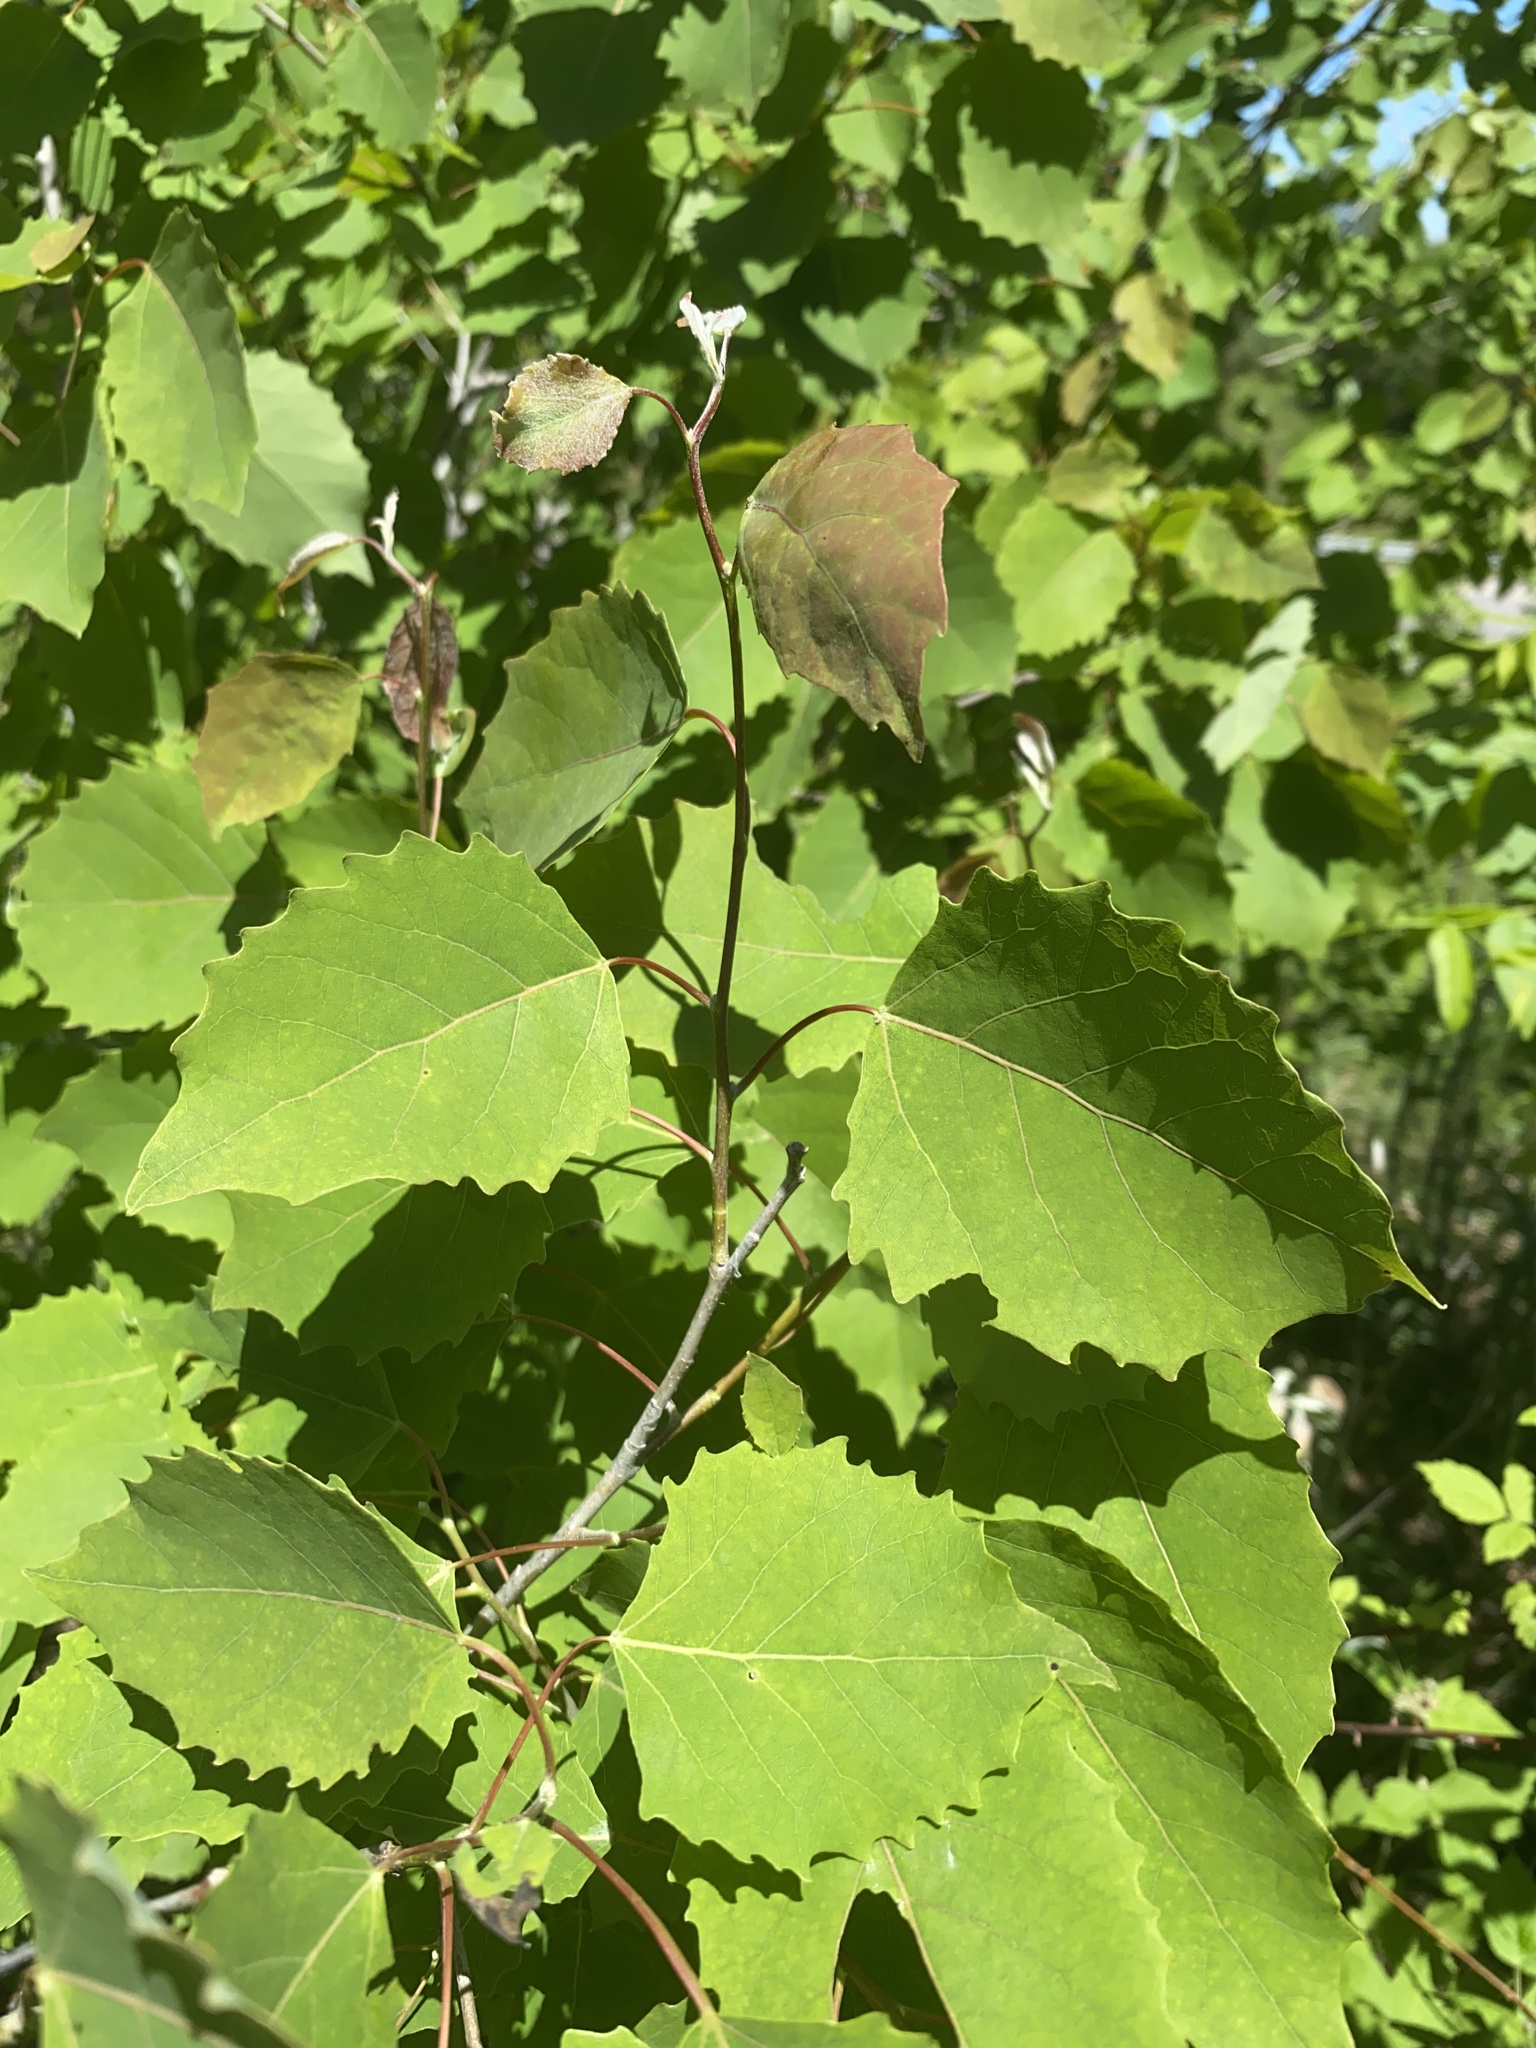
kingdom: Plantae
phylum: Tracheophyta
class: Magnoliopsida
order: Malpighiales
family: Salicaceae
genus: Populus
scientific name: Populus grandidentata
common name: Bigtooth aspen
